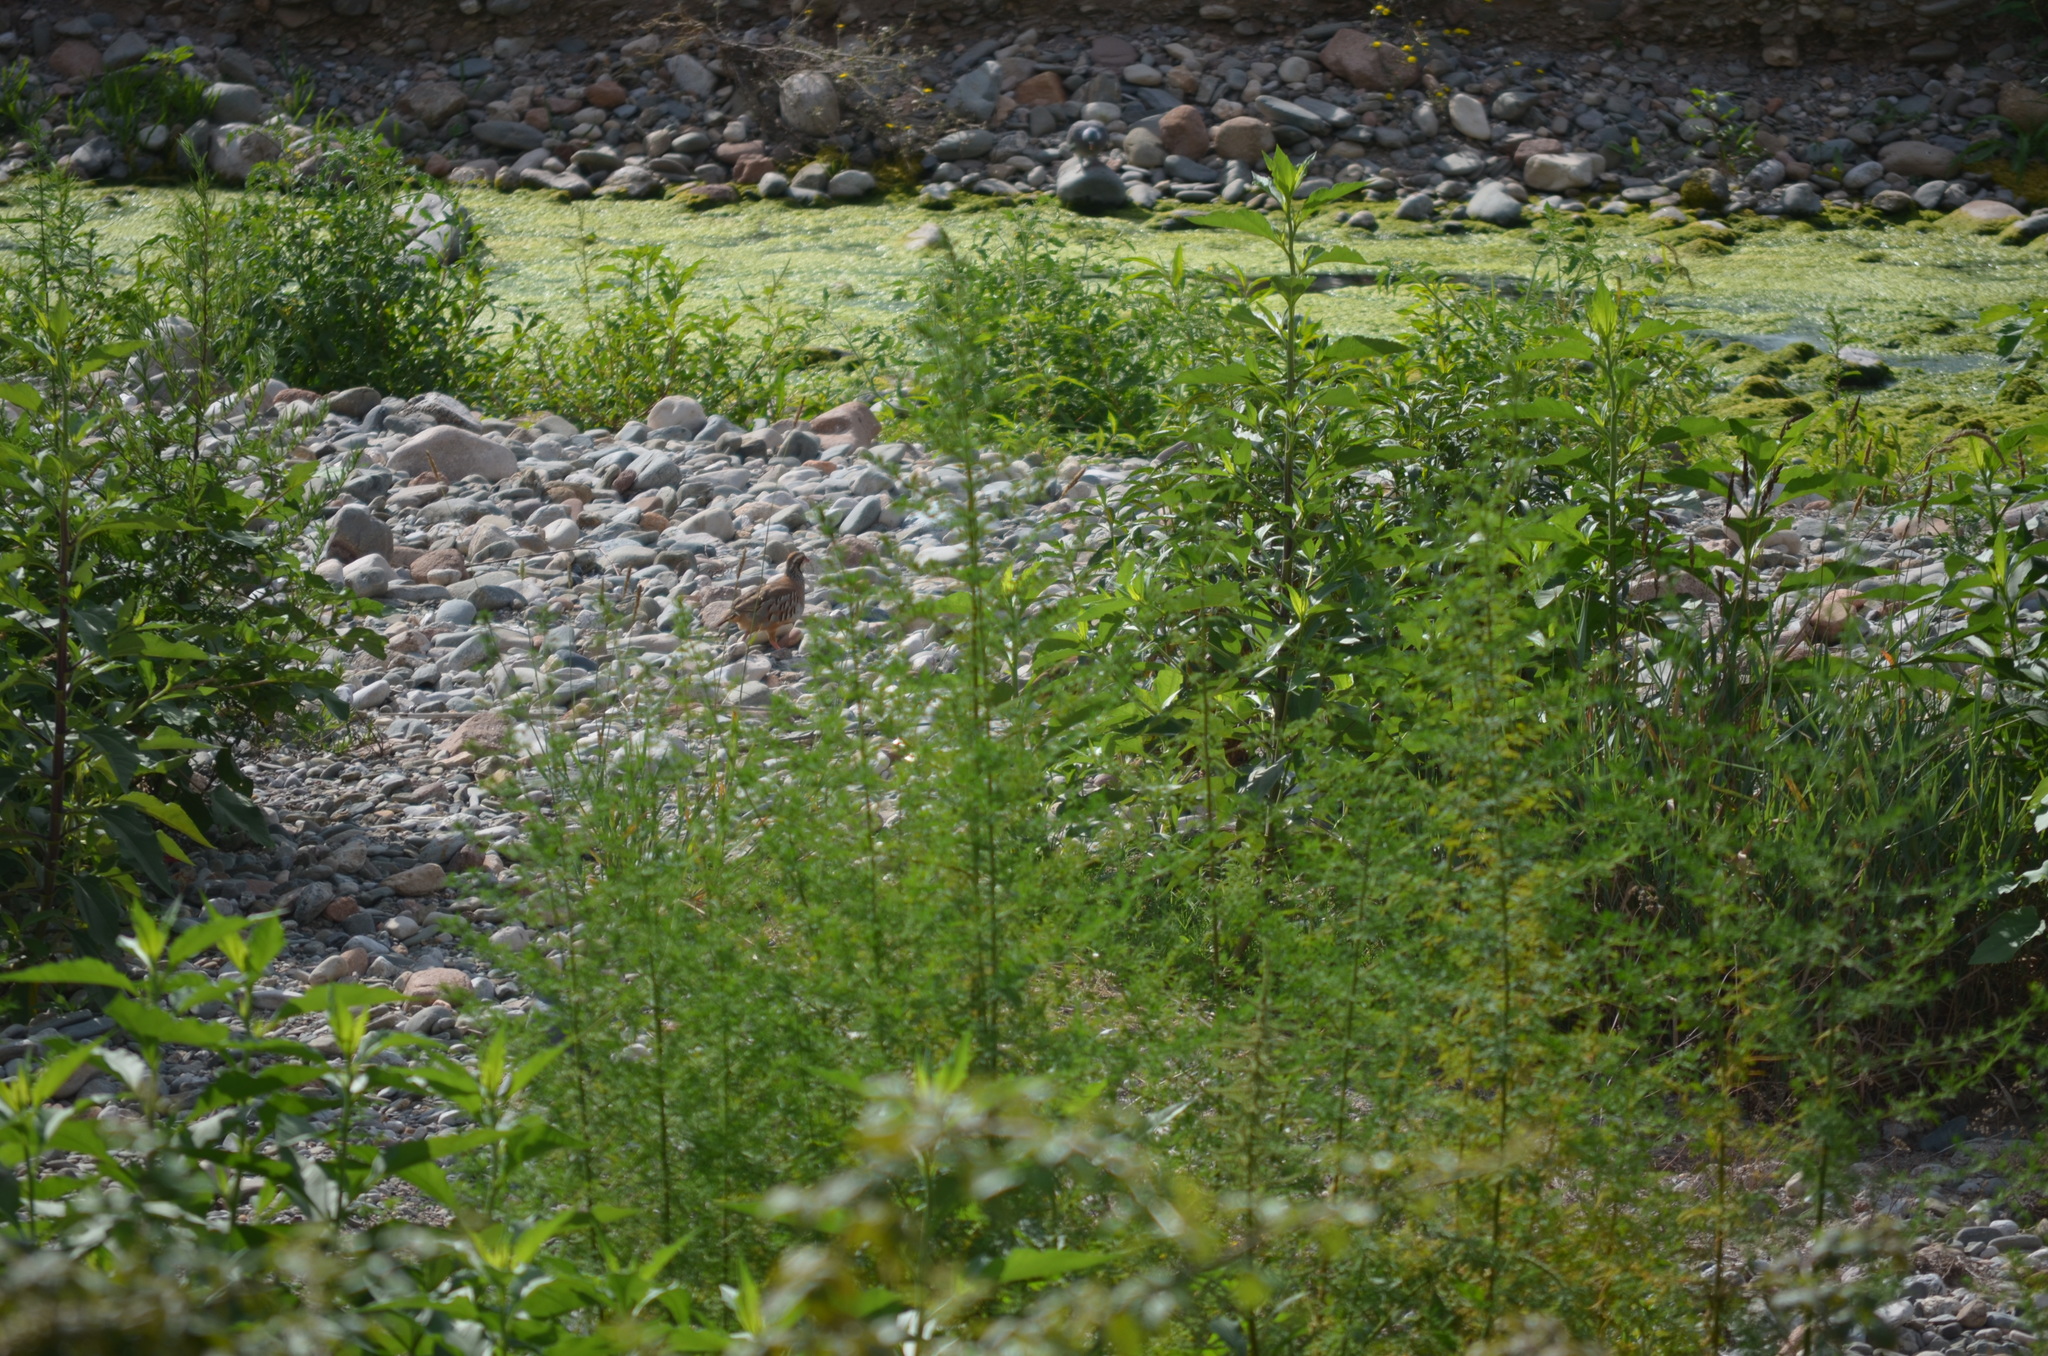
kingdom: Animalia
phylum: Chordata
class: Aves
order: Galliformes
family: Phasianidae
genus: Alectoris
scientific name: Alectoris rufa
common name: Red-legged partridge
